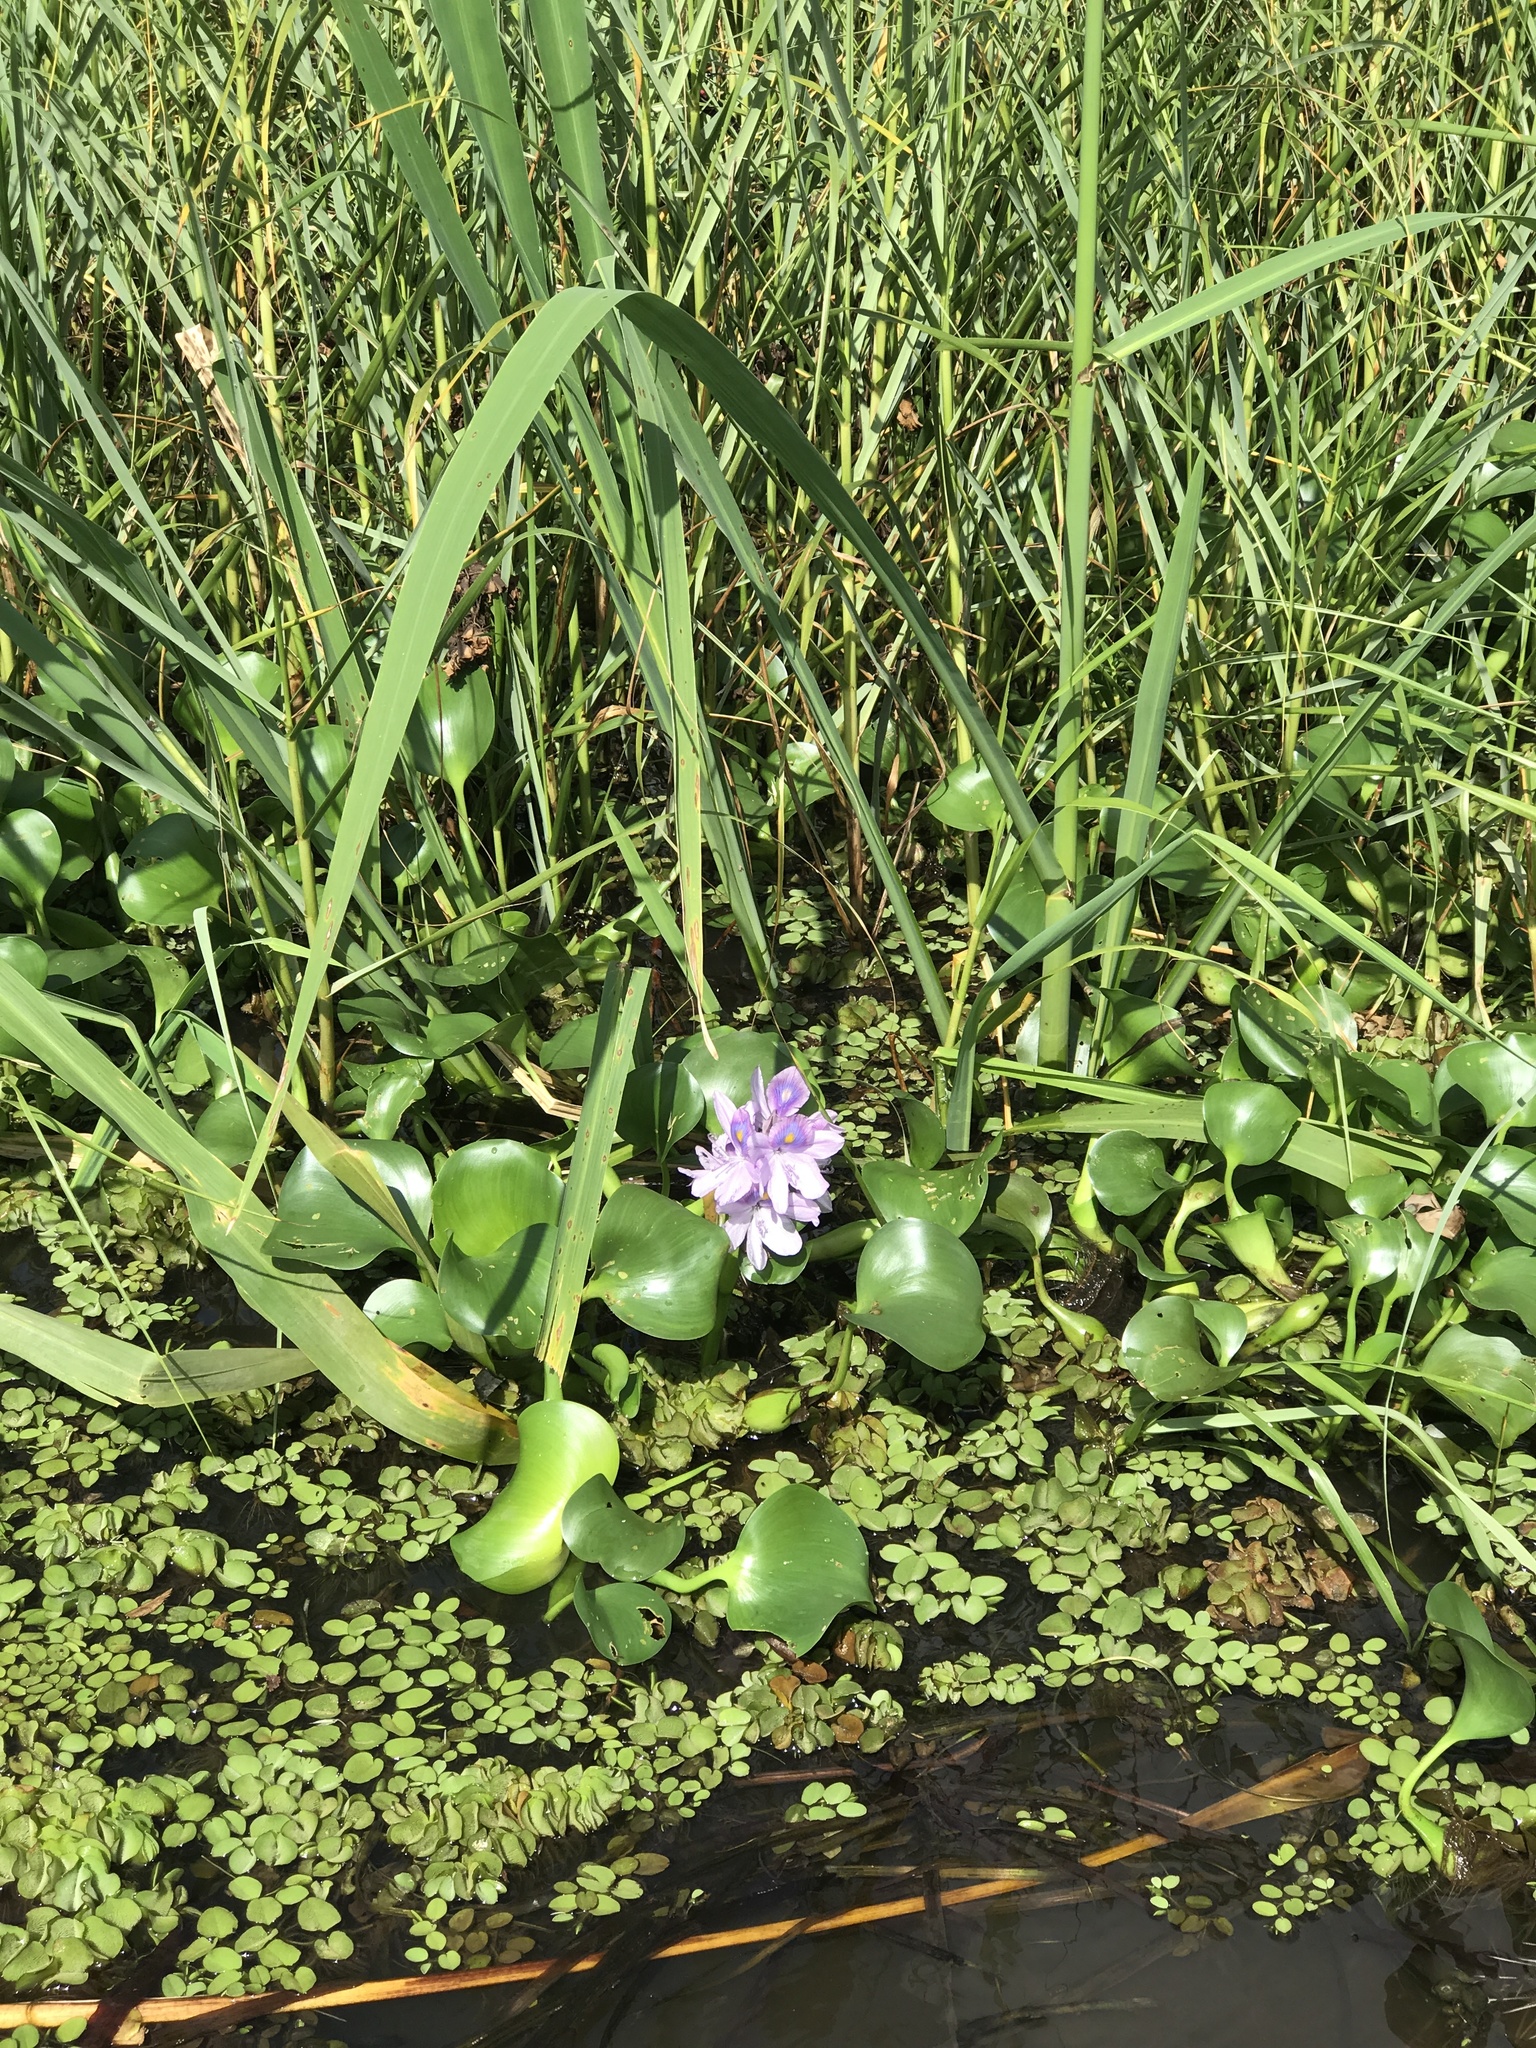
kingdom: Plantae
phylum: Tracheophyta
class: Liliopsida
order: Commelinales
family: Pontederiaceae
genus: Pontederia
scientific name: Pontederia crassipes
